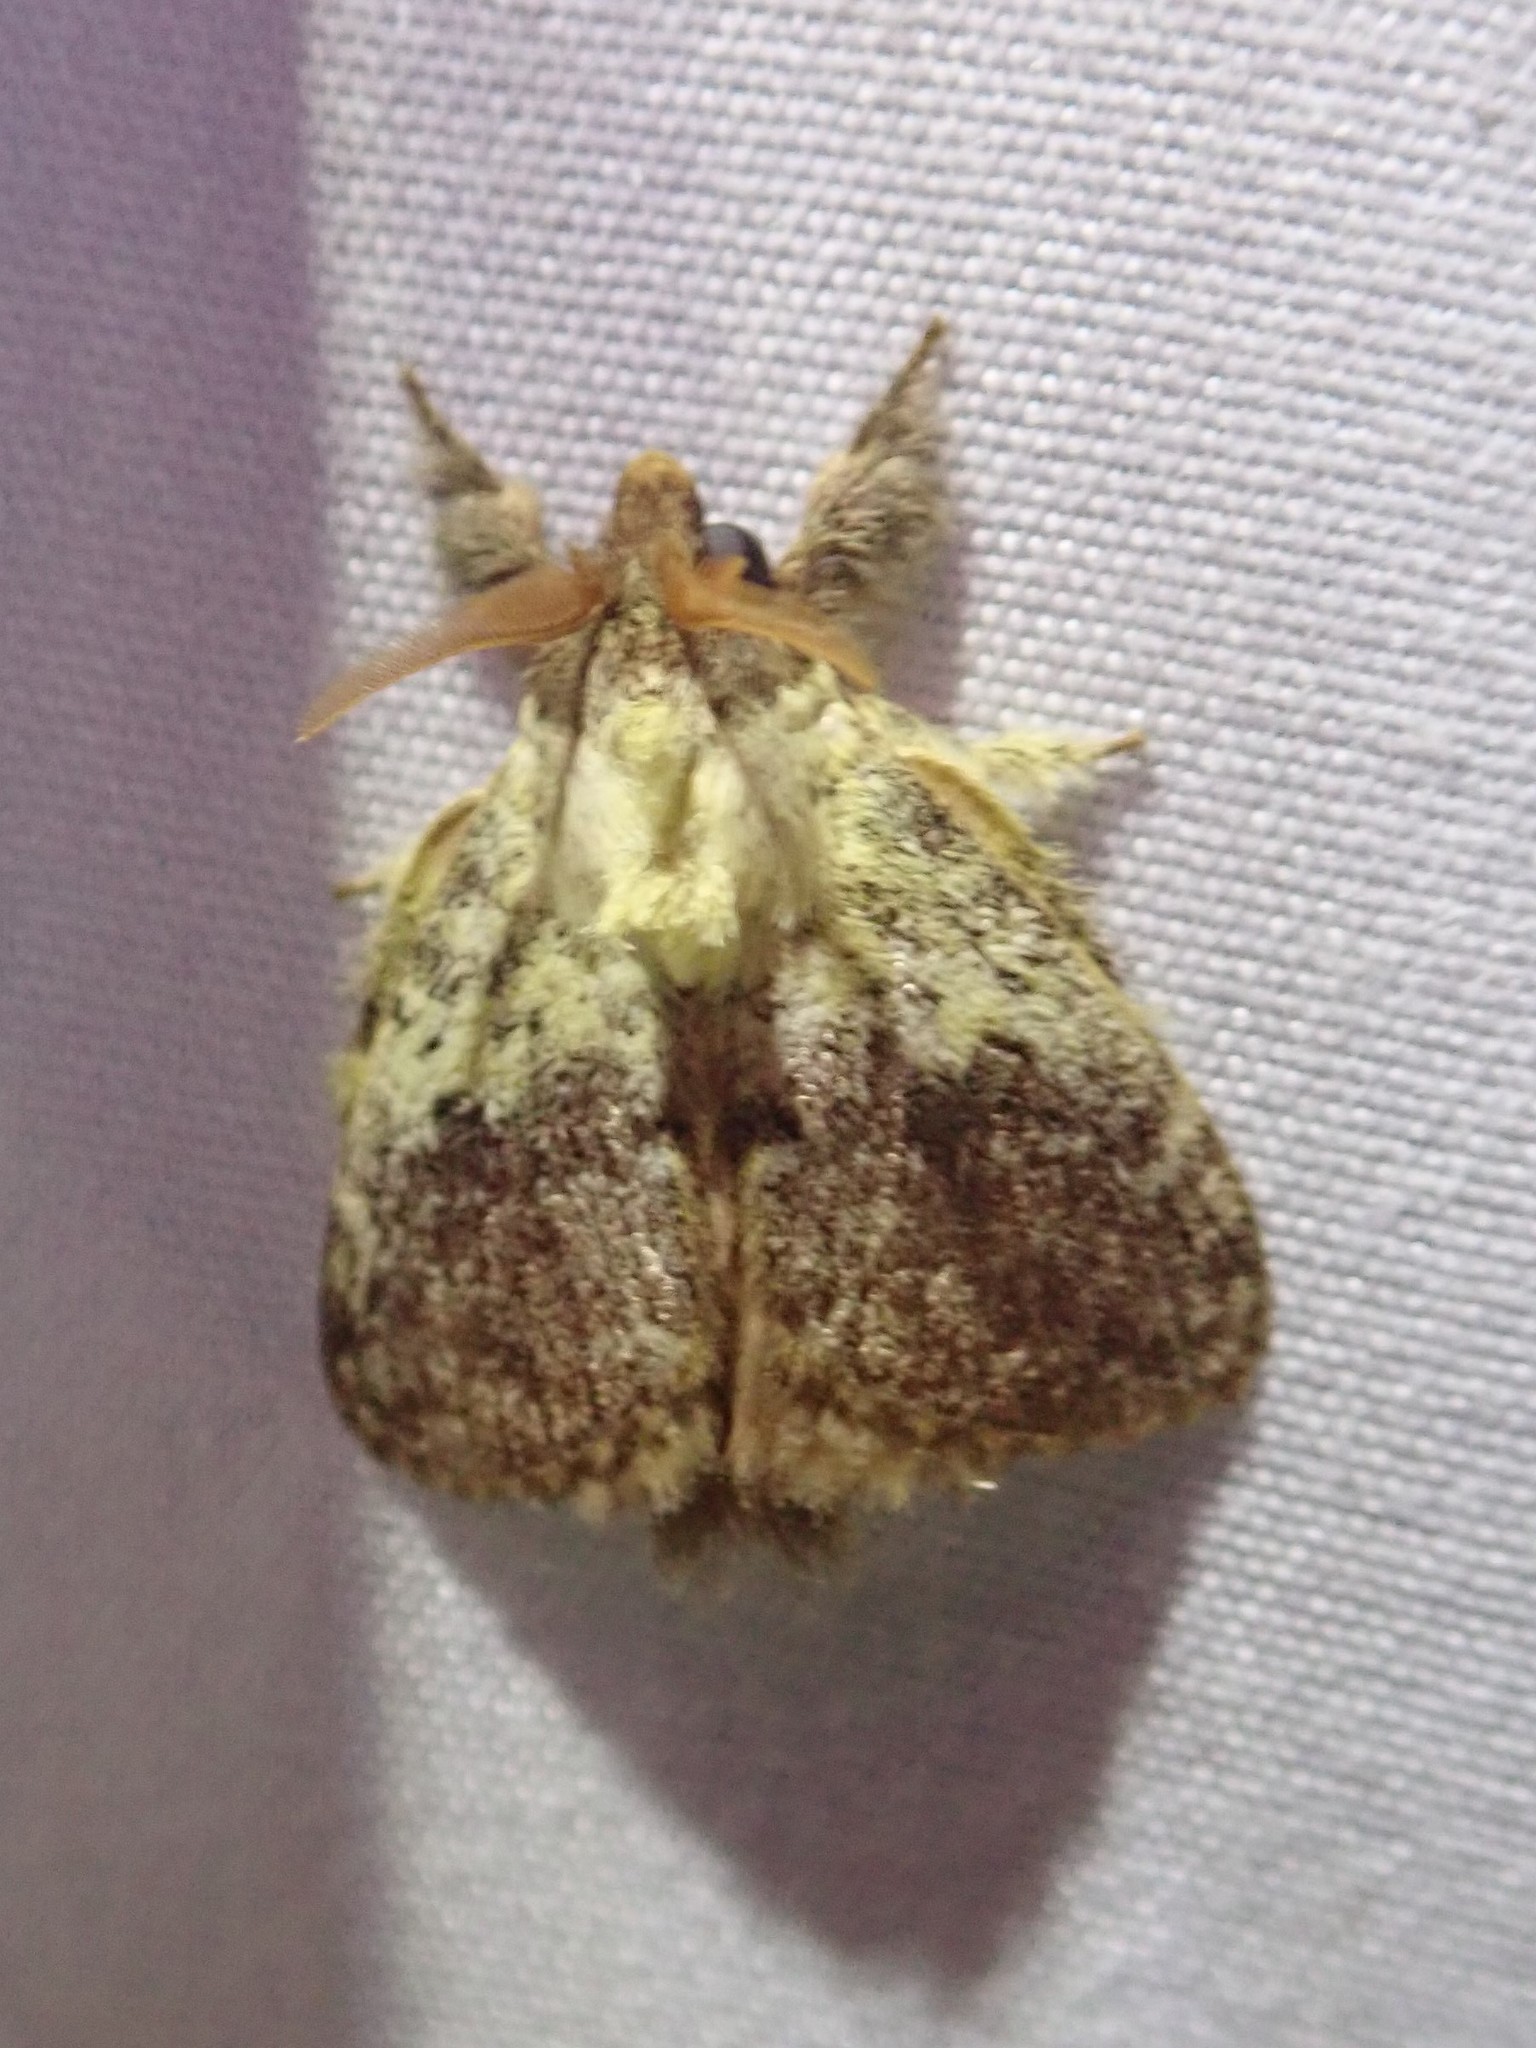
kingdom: Animalia
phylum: Arthropoda
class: Insecta
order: Lepidoptera
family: Lasiocampidae
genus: Euglyphis
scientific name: Euglyphis primola
